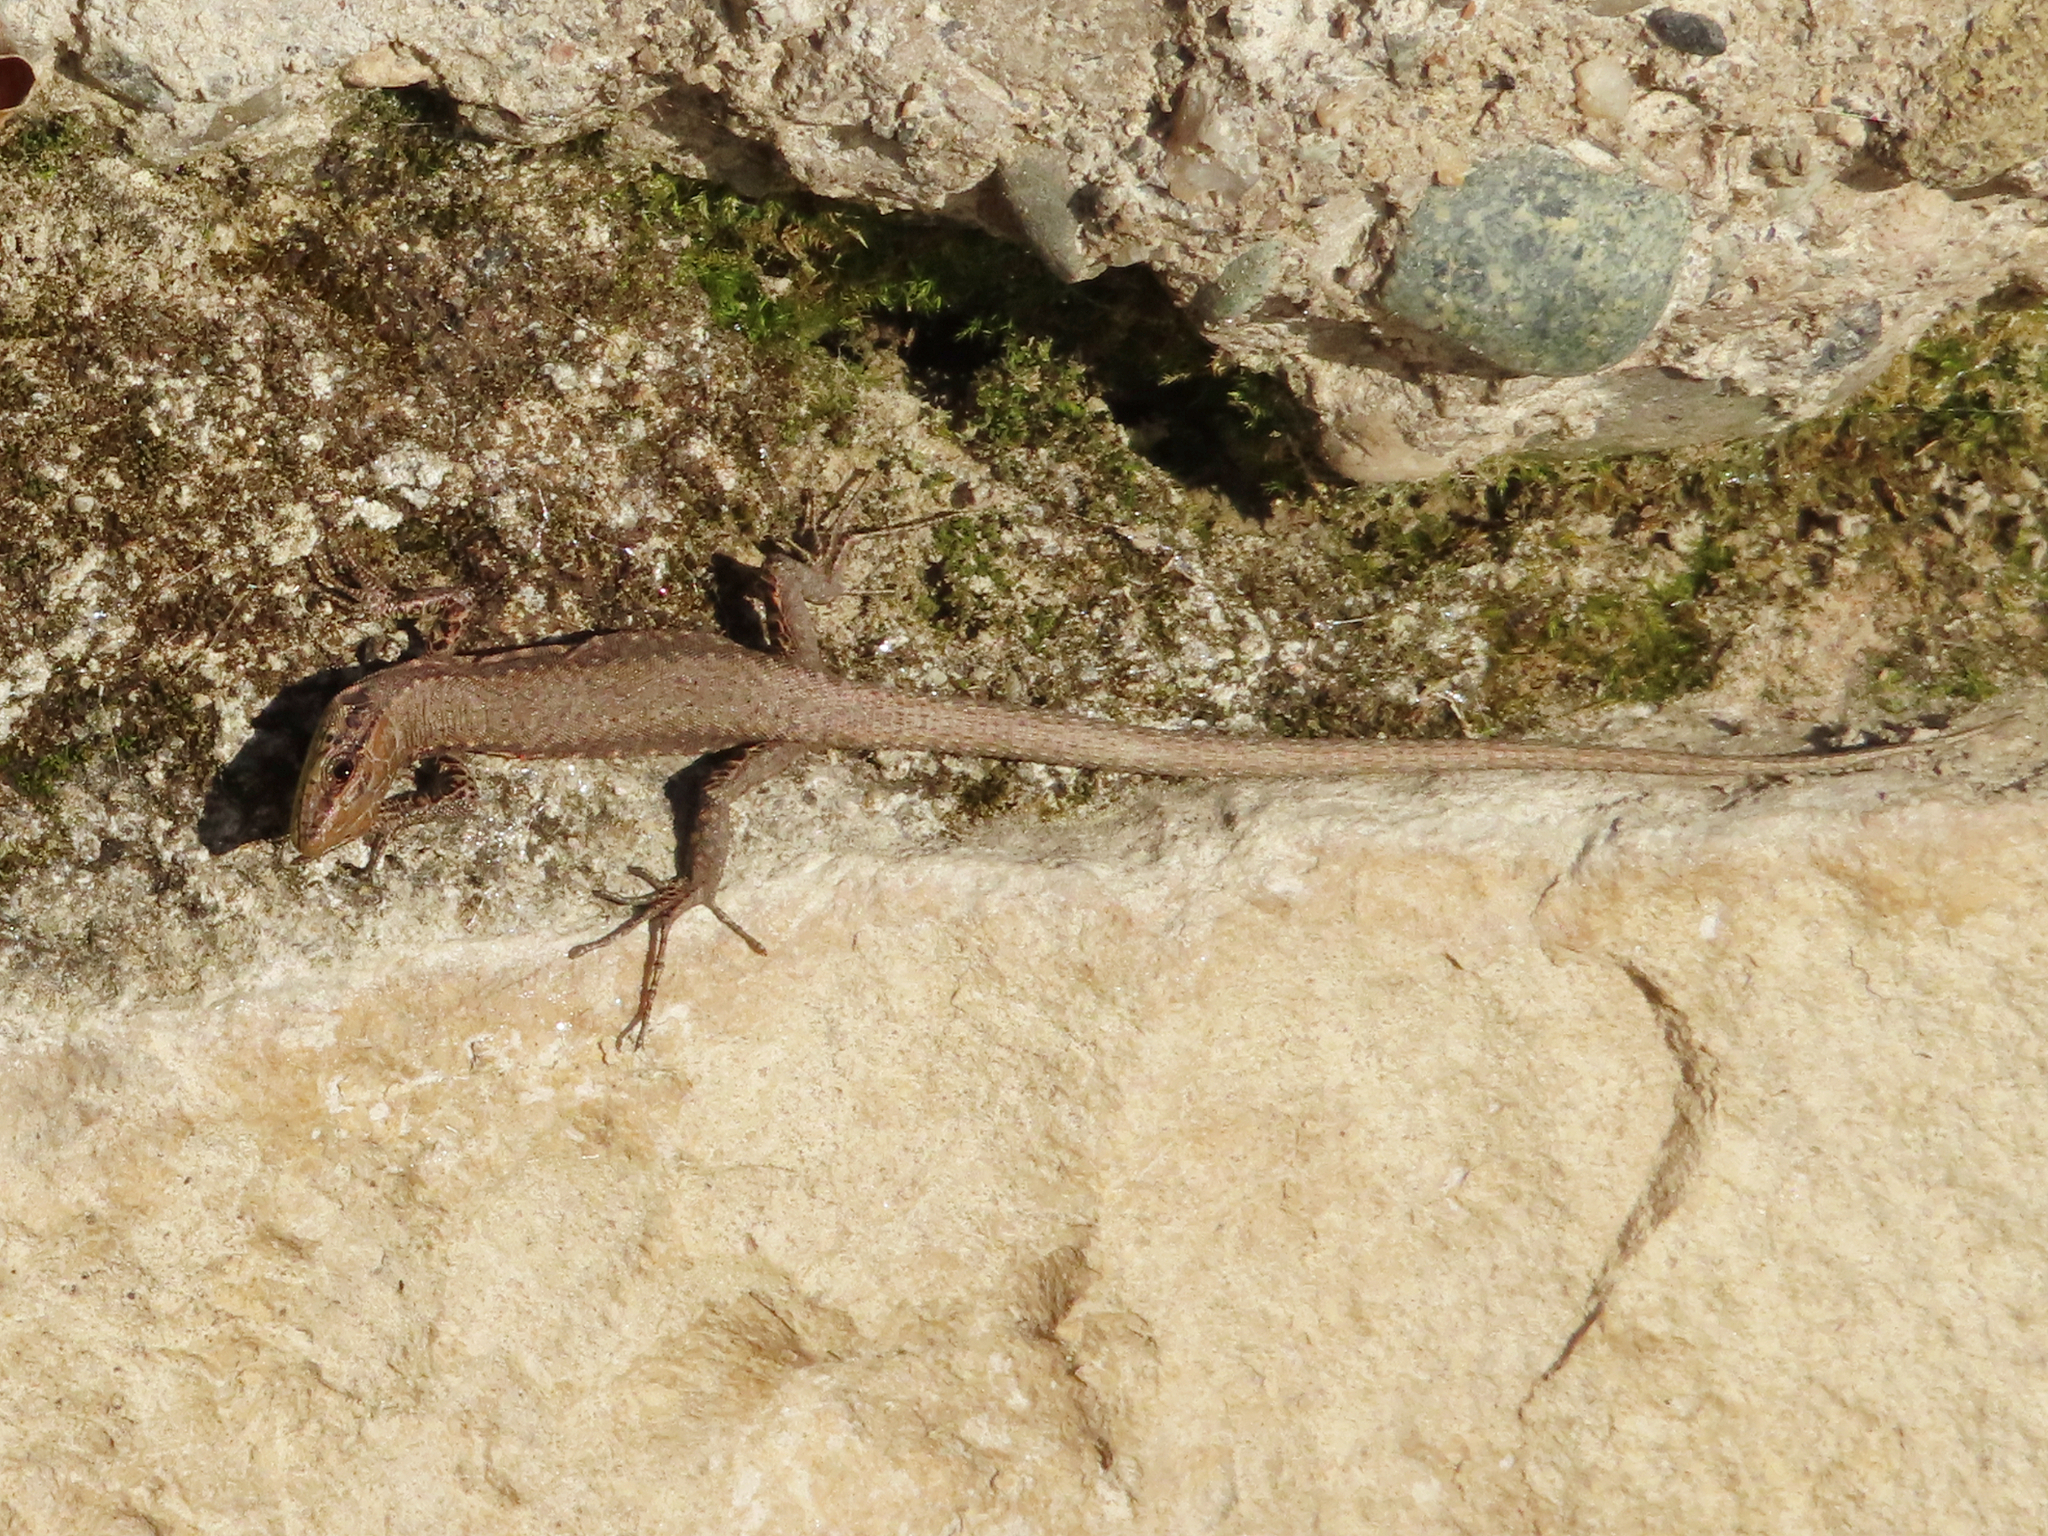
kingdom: Animalia
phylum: Chordata
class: Squamata
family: Lacertidae
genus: Darevskia
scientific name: Darevskia mixta
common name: Ajarian lizard
